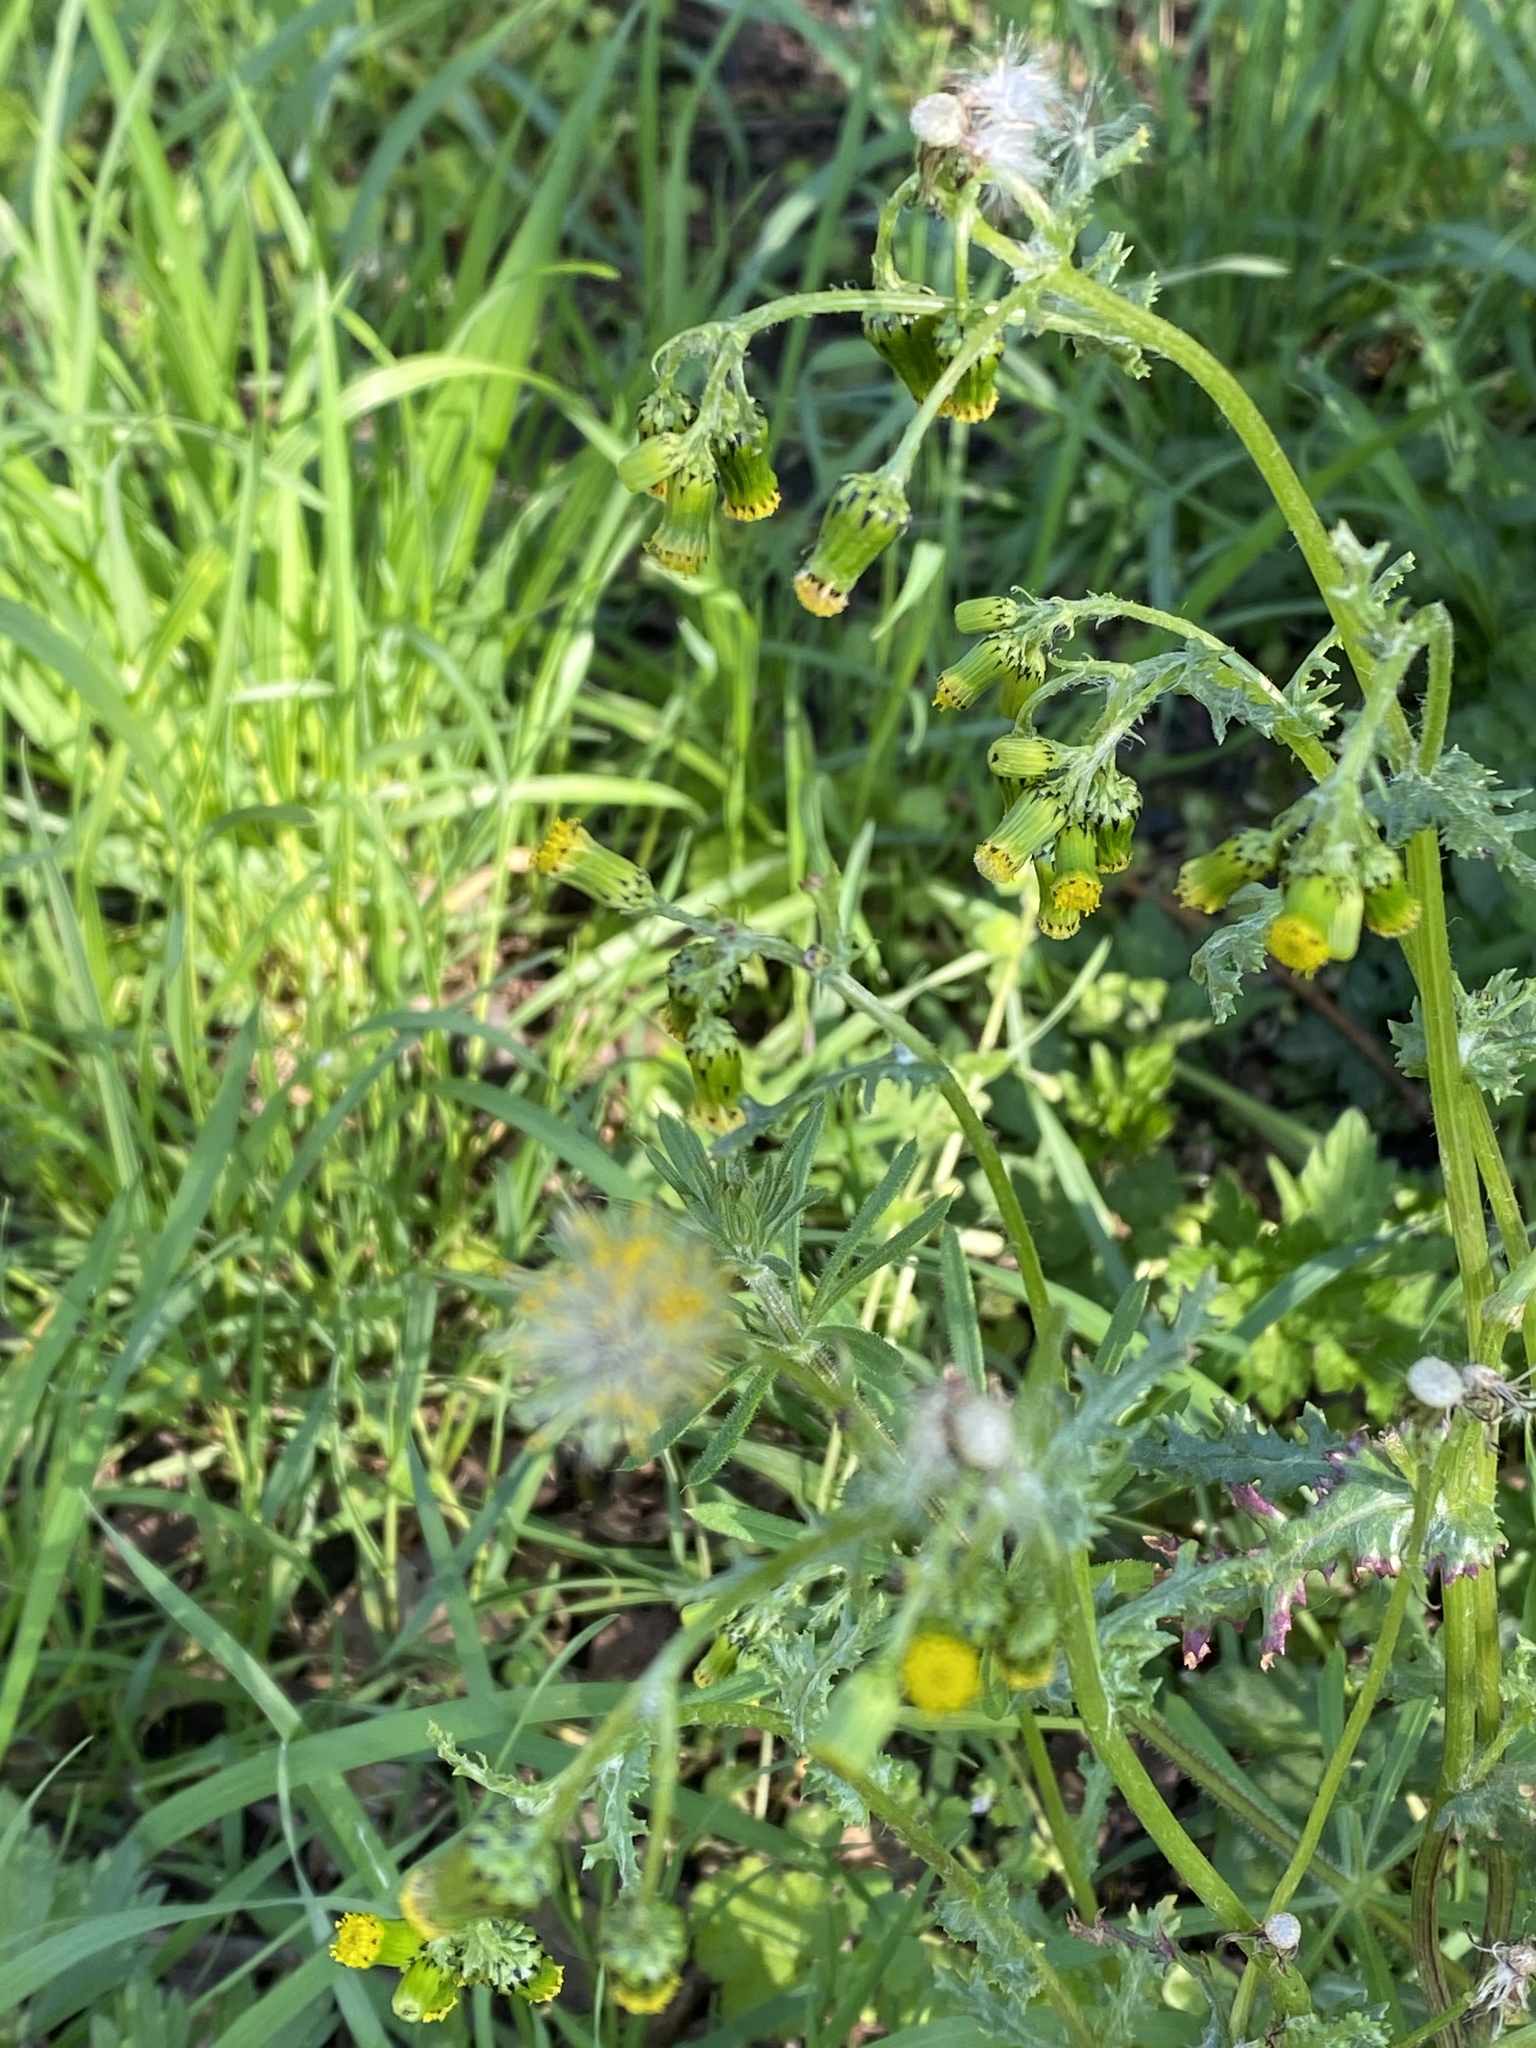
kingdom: Plantae
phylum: Tracheophyta
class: Magnoliopsida
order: Asterales
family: Asteraceae
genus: Senecio
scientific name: Senecio vulgaris
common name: Old-man-in-the-spring
